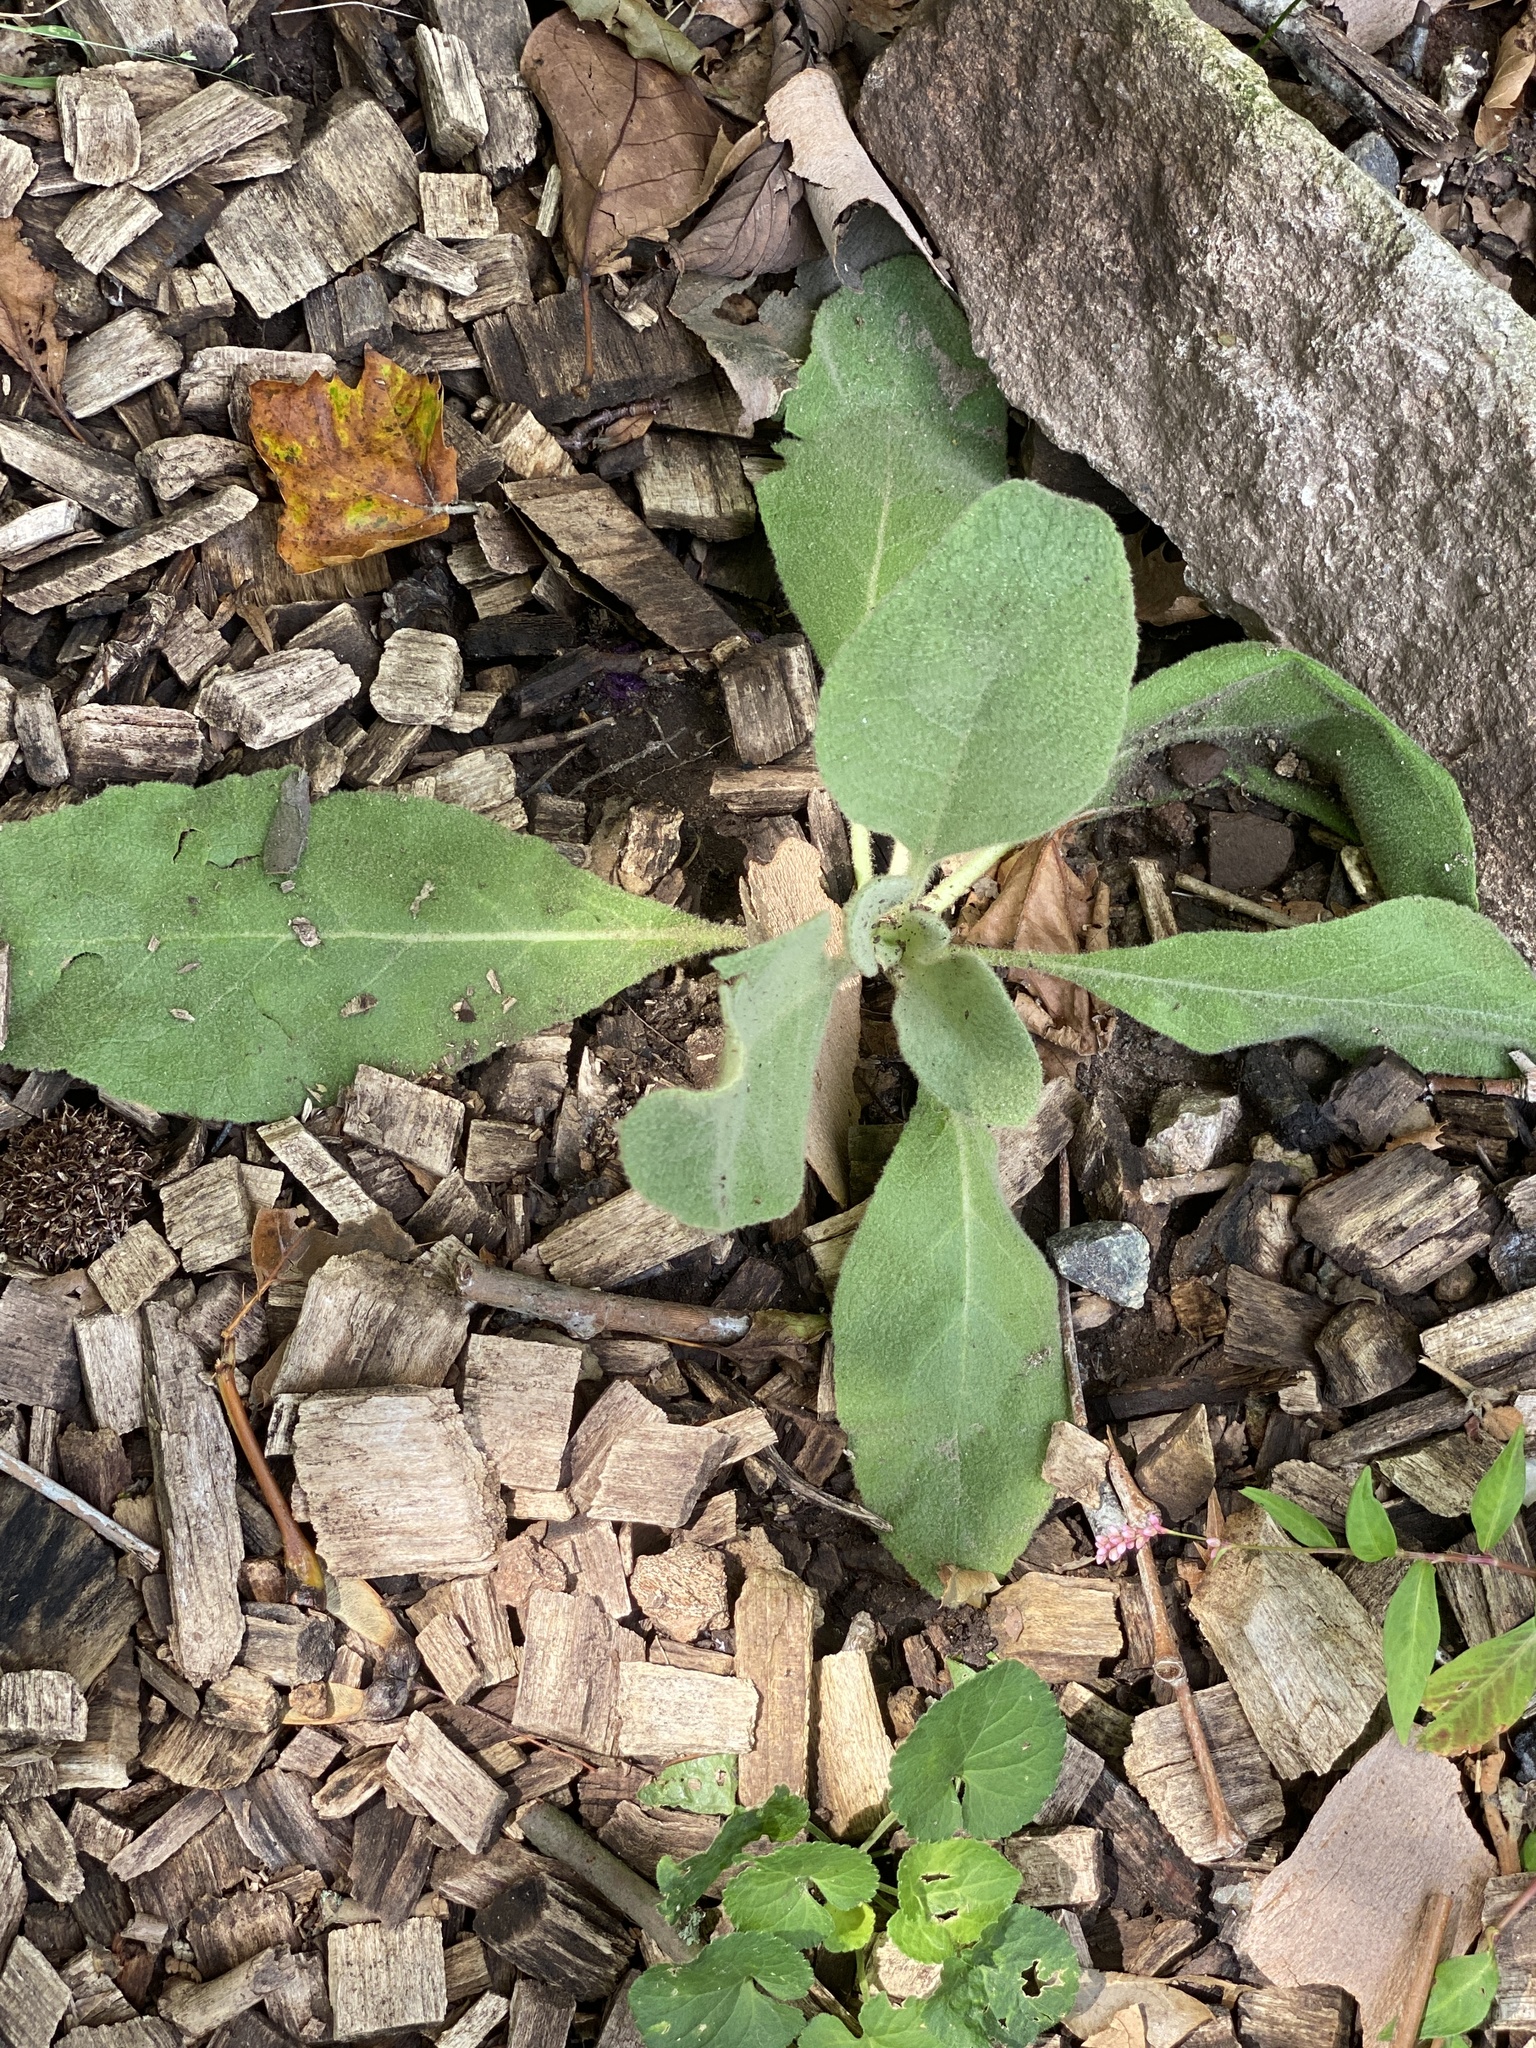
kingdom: Plantae
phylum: Tracheophyta
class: Magnoliopsida
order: Lamiales
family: Scrophulariaceae
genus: Verbascum
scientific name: Verbascum thapsus
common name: Common mullein
